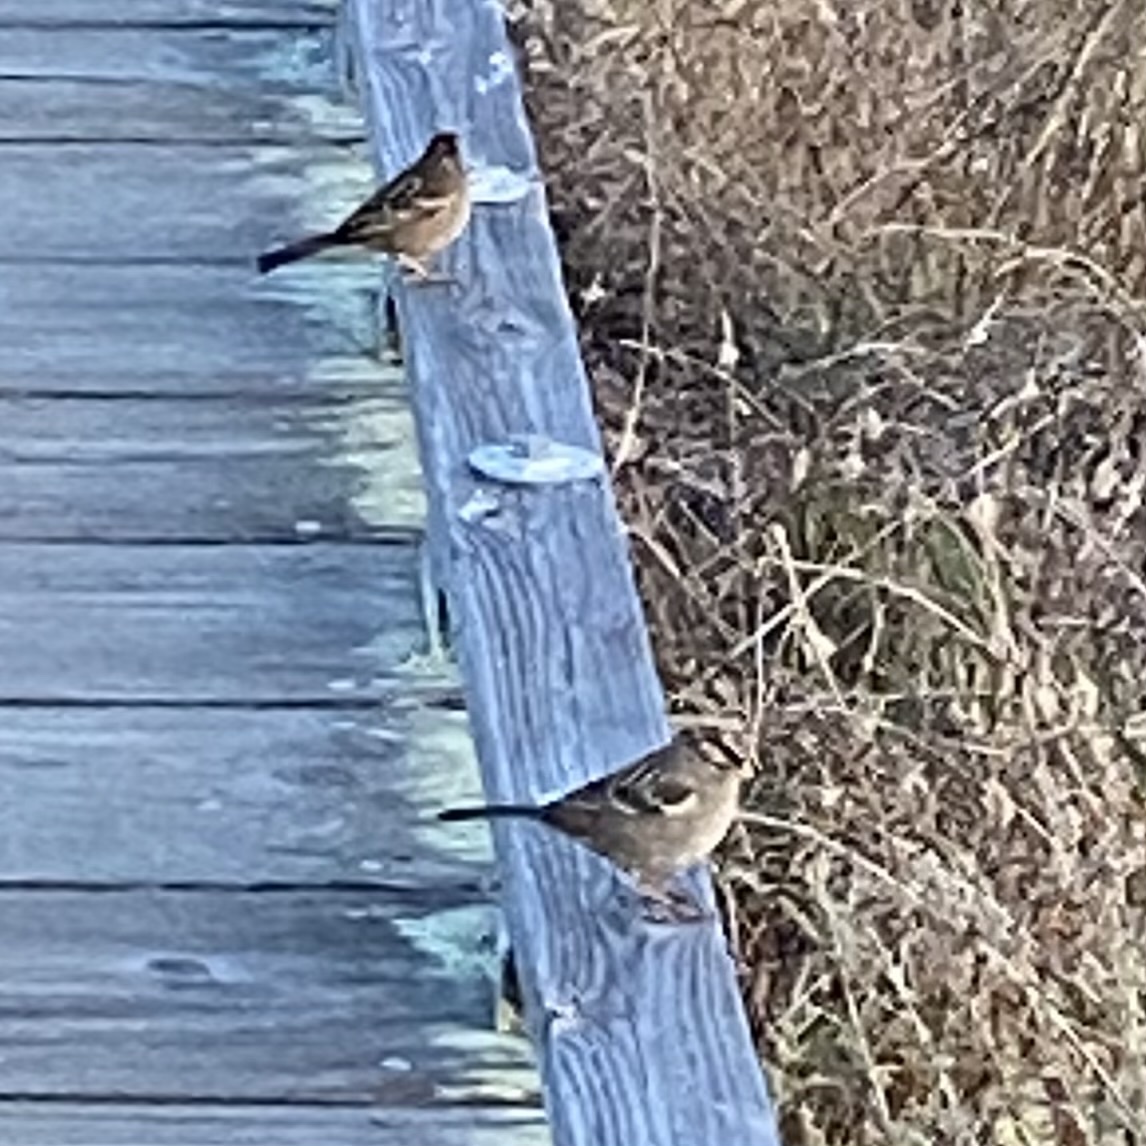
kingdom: Animalia
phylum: Chordata
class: Aves
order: Passeriformes
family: Passerellidae
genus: Zonotrichia
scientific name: Zonotrichia leucophrys
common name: White-crowned sparrow
